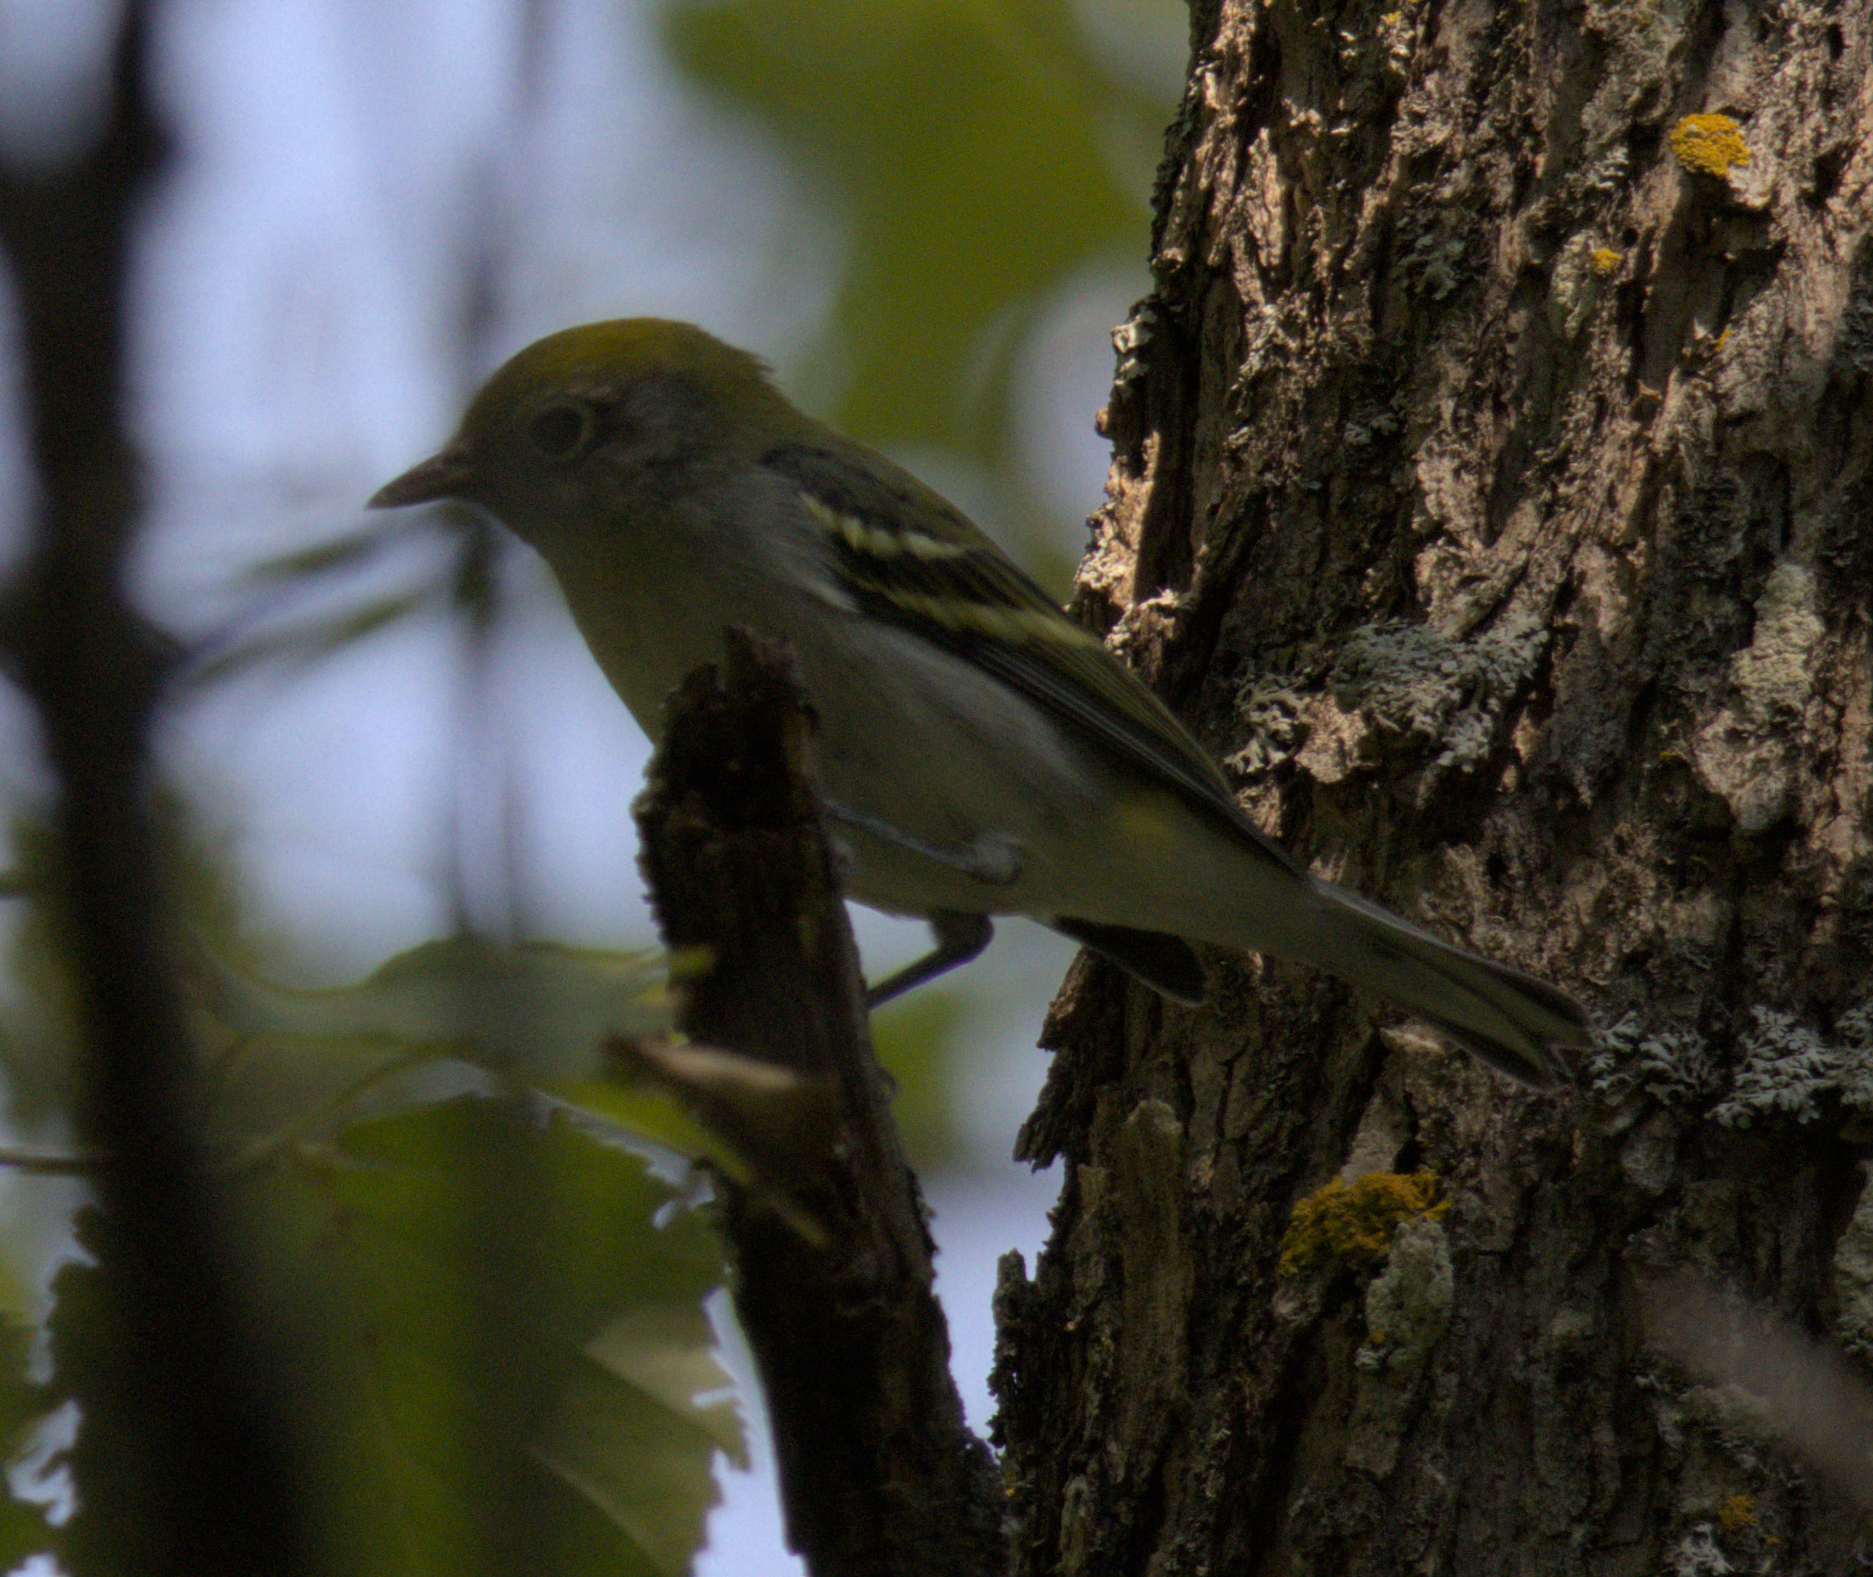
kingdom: Animalia
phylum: Chordata
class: Aves
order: Passeriformes
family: Parulidae
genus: Setophaga
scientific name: Setophaga pensylvanica
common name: Chestnut-sided warbler
